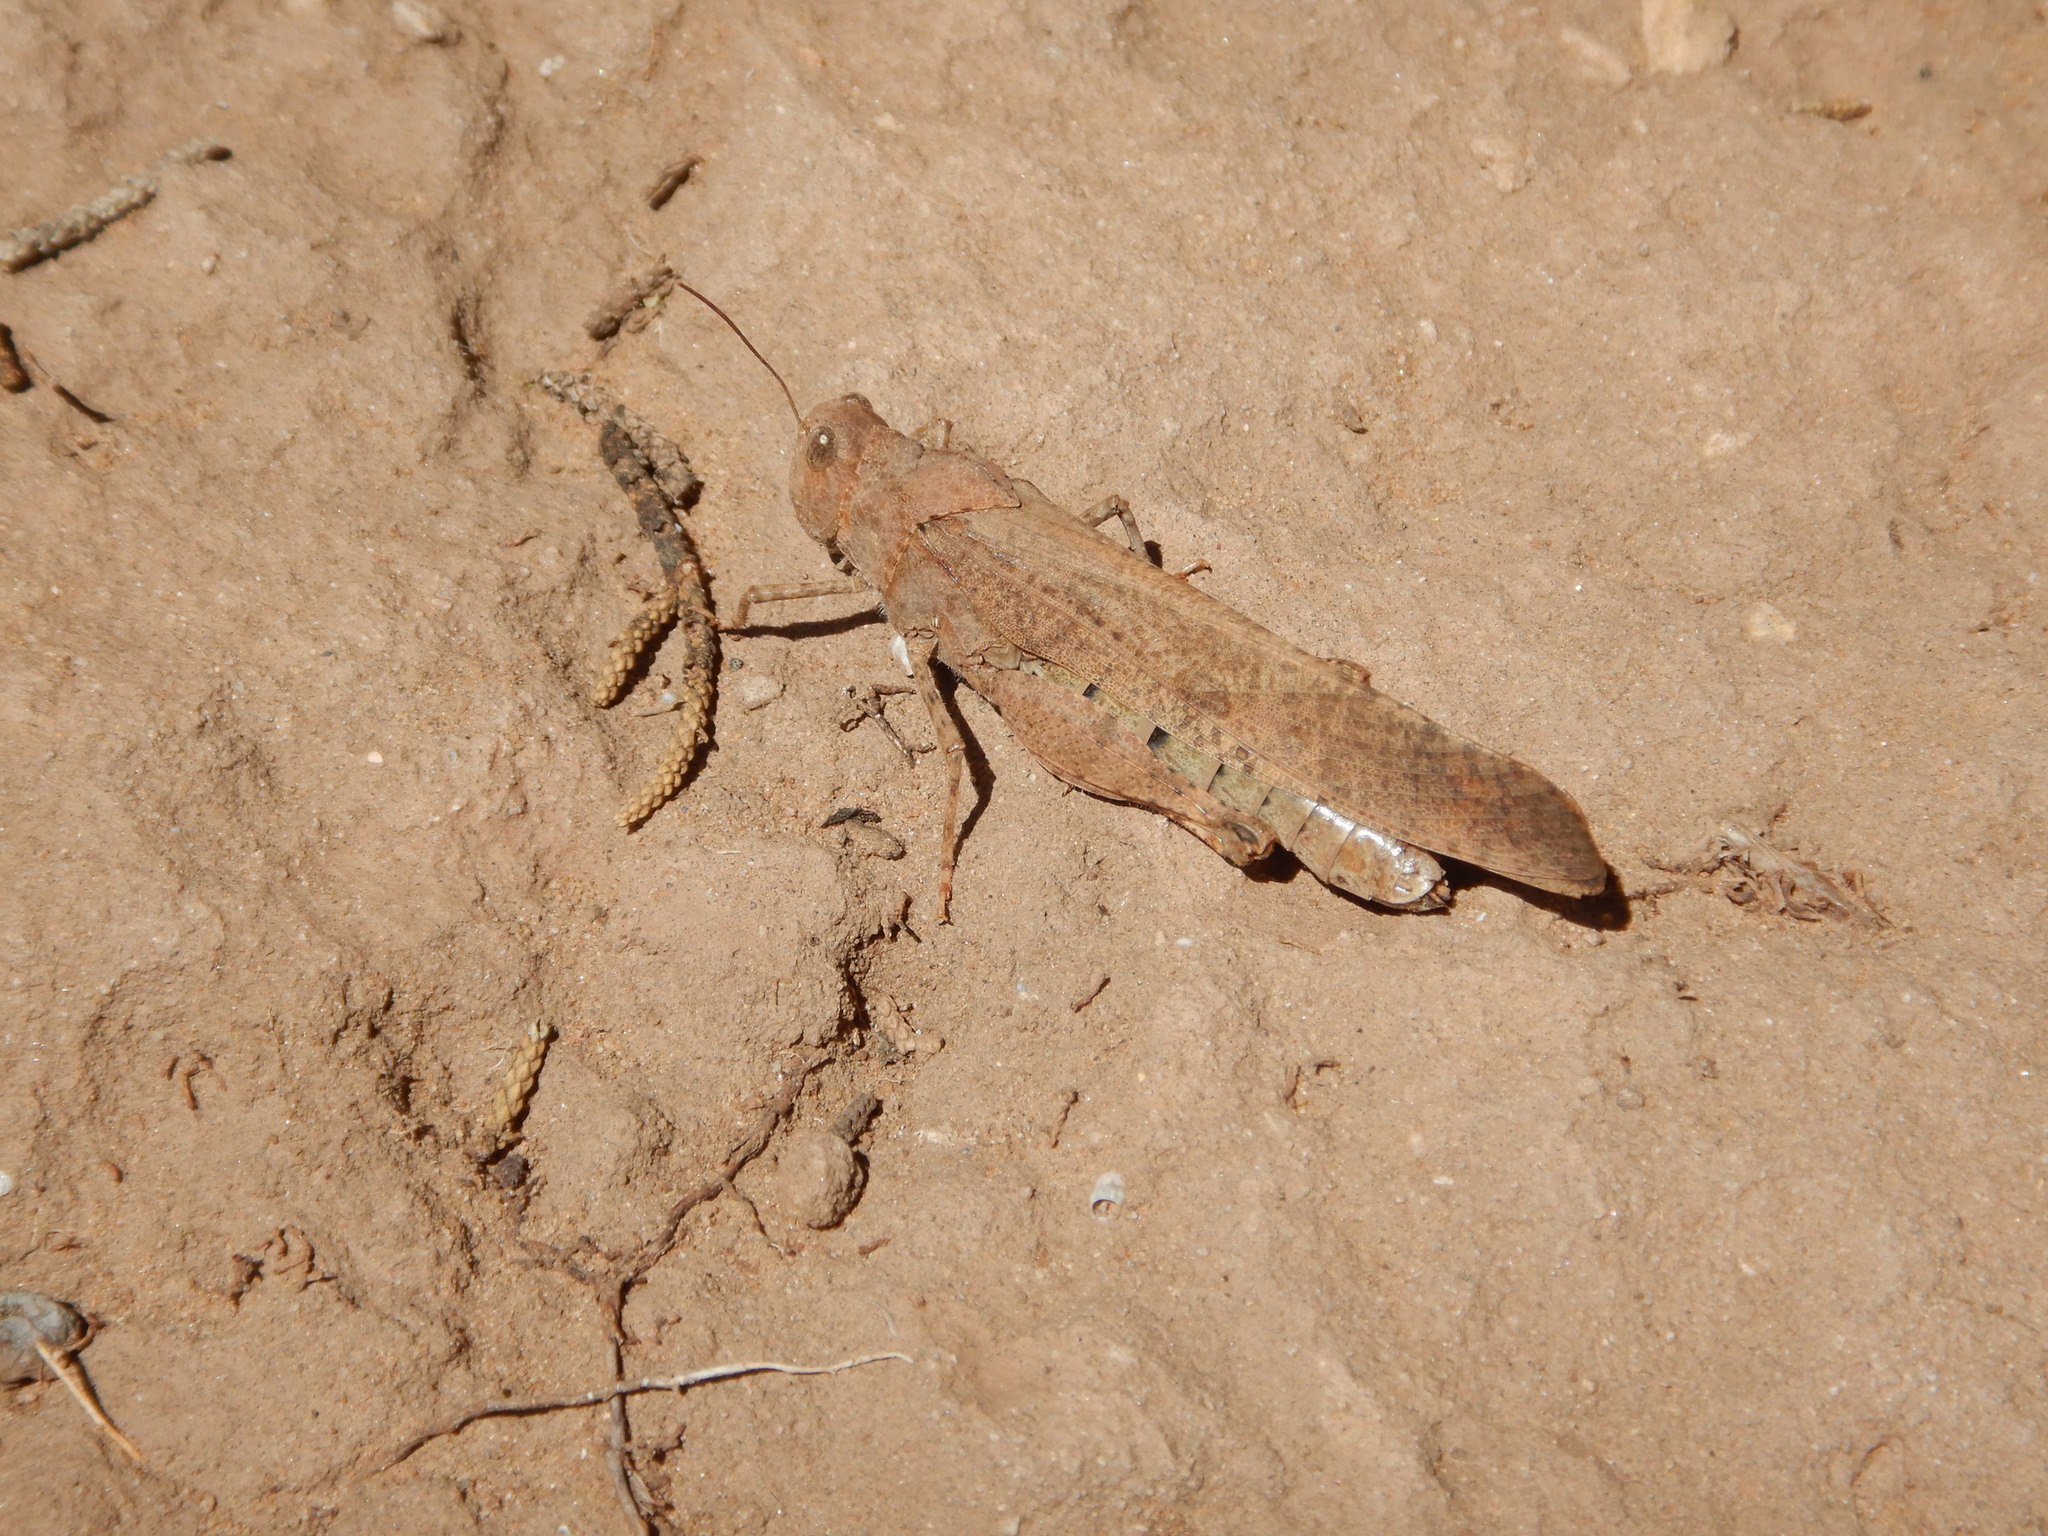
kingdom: Animalia
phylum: Arthropoda
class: Insecta
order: Orthoptera
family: Acrididae
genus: Dissosteira
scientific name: Dissosteira carolina
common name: Carolina grasshopper
